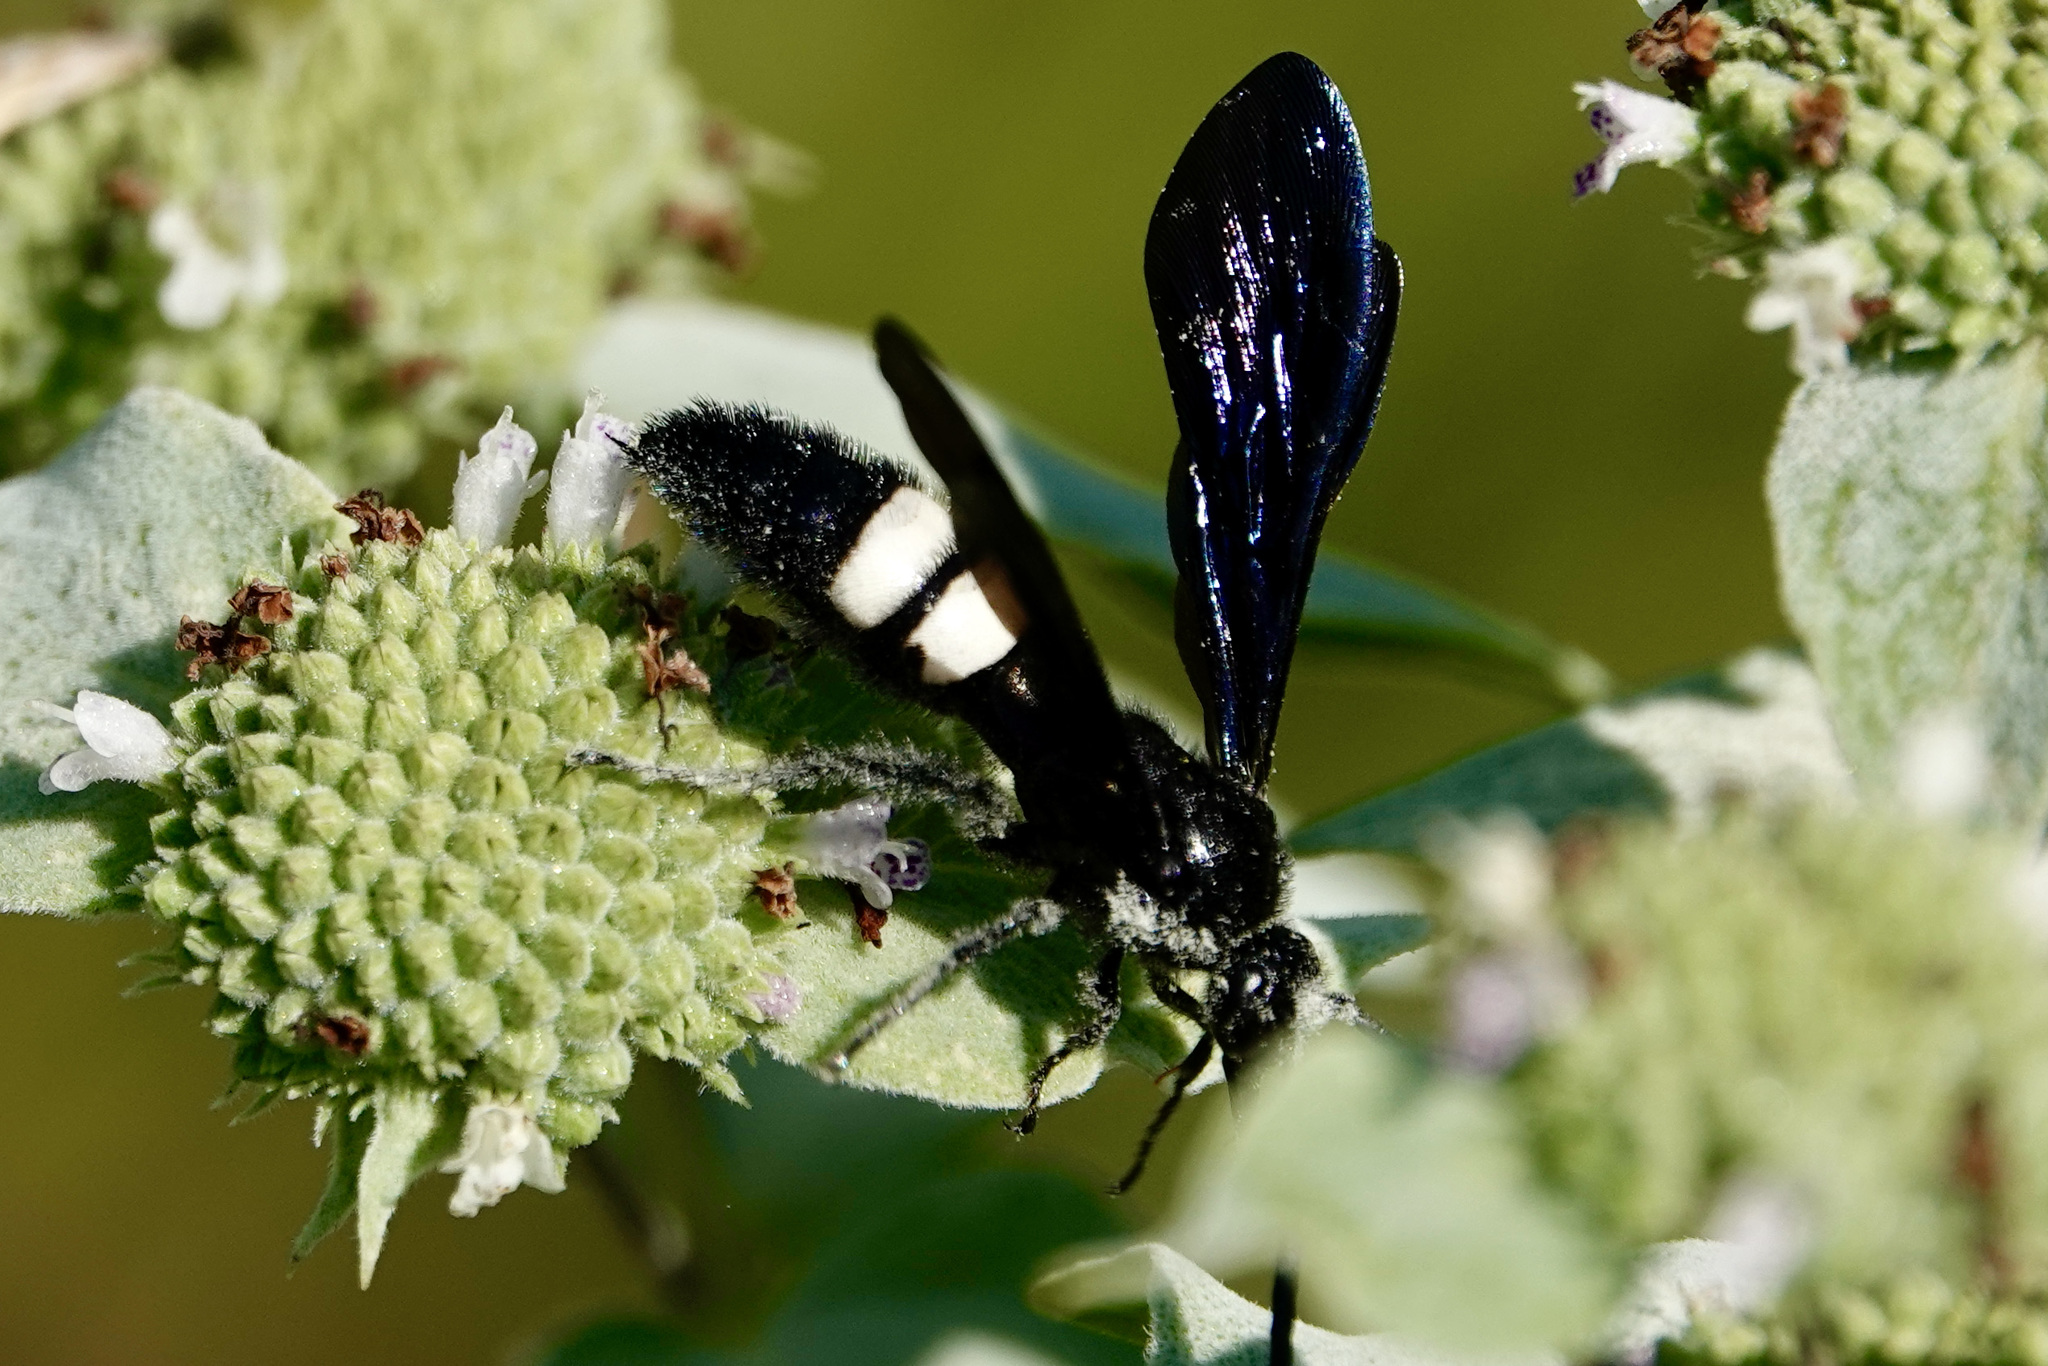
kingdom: Animalia
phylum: Arthropoda
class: Insecta
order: Hymenoptera
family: Scoliidae
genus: Scolia
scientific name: Scolia bicincta
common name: Double-banded scoliid wasp
